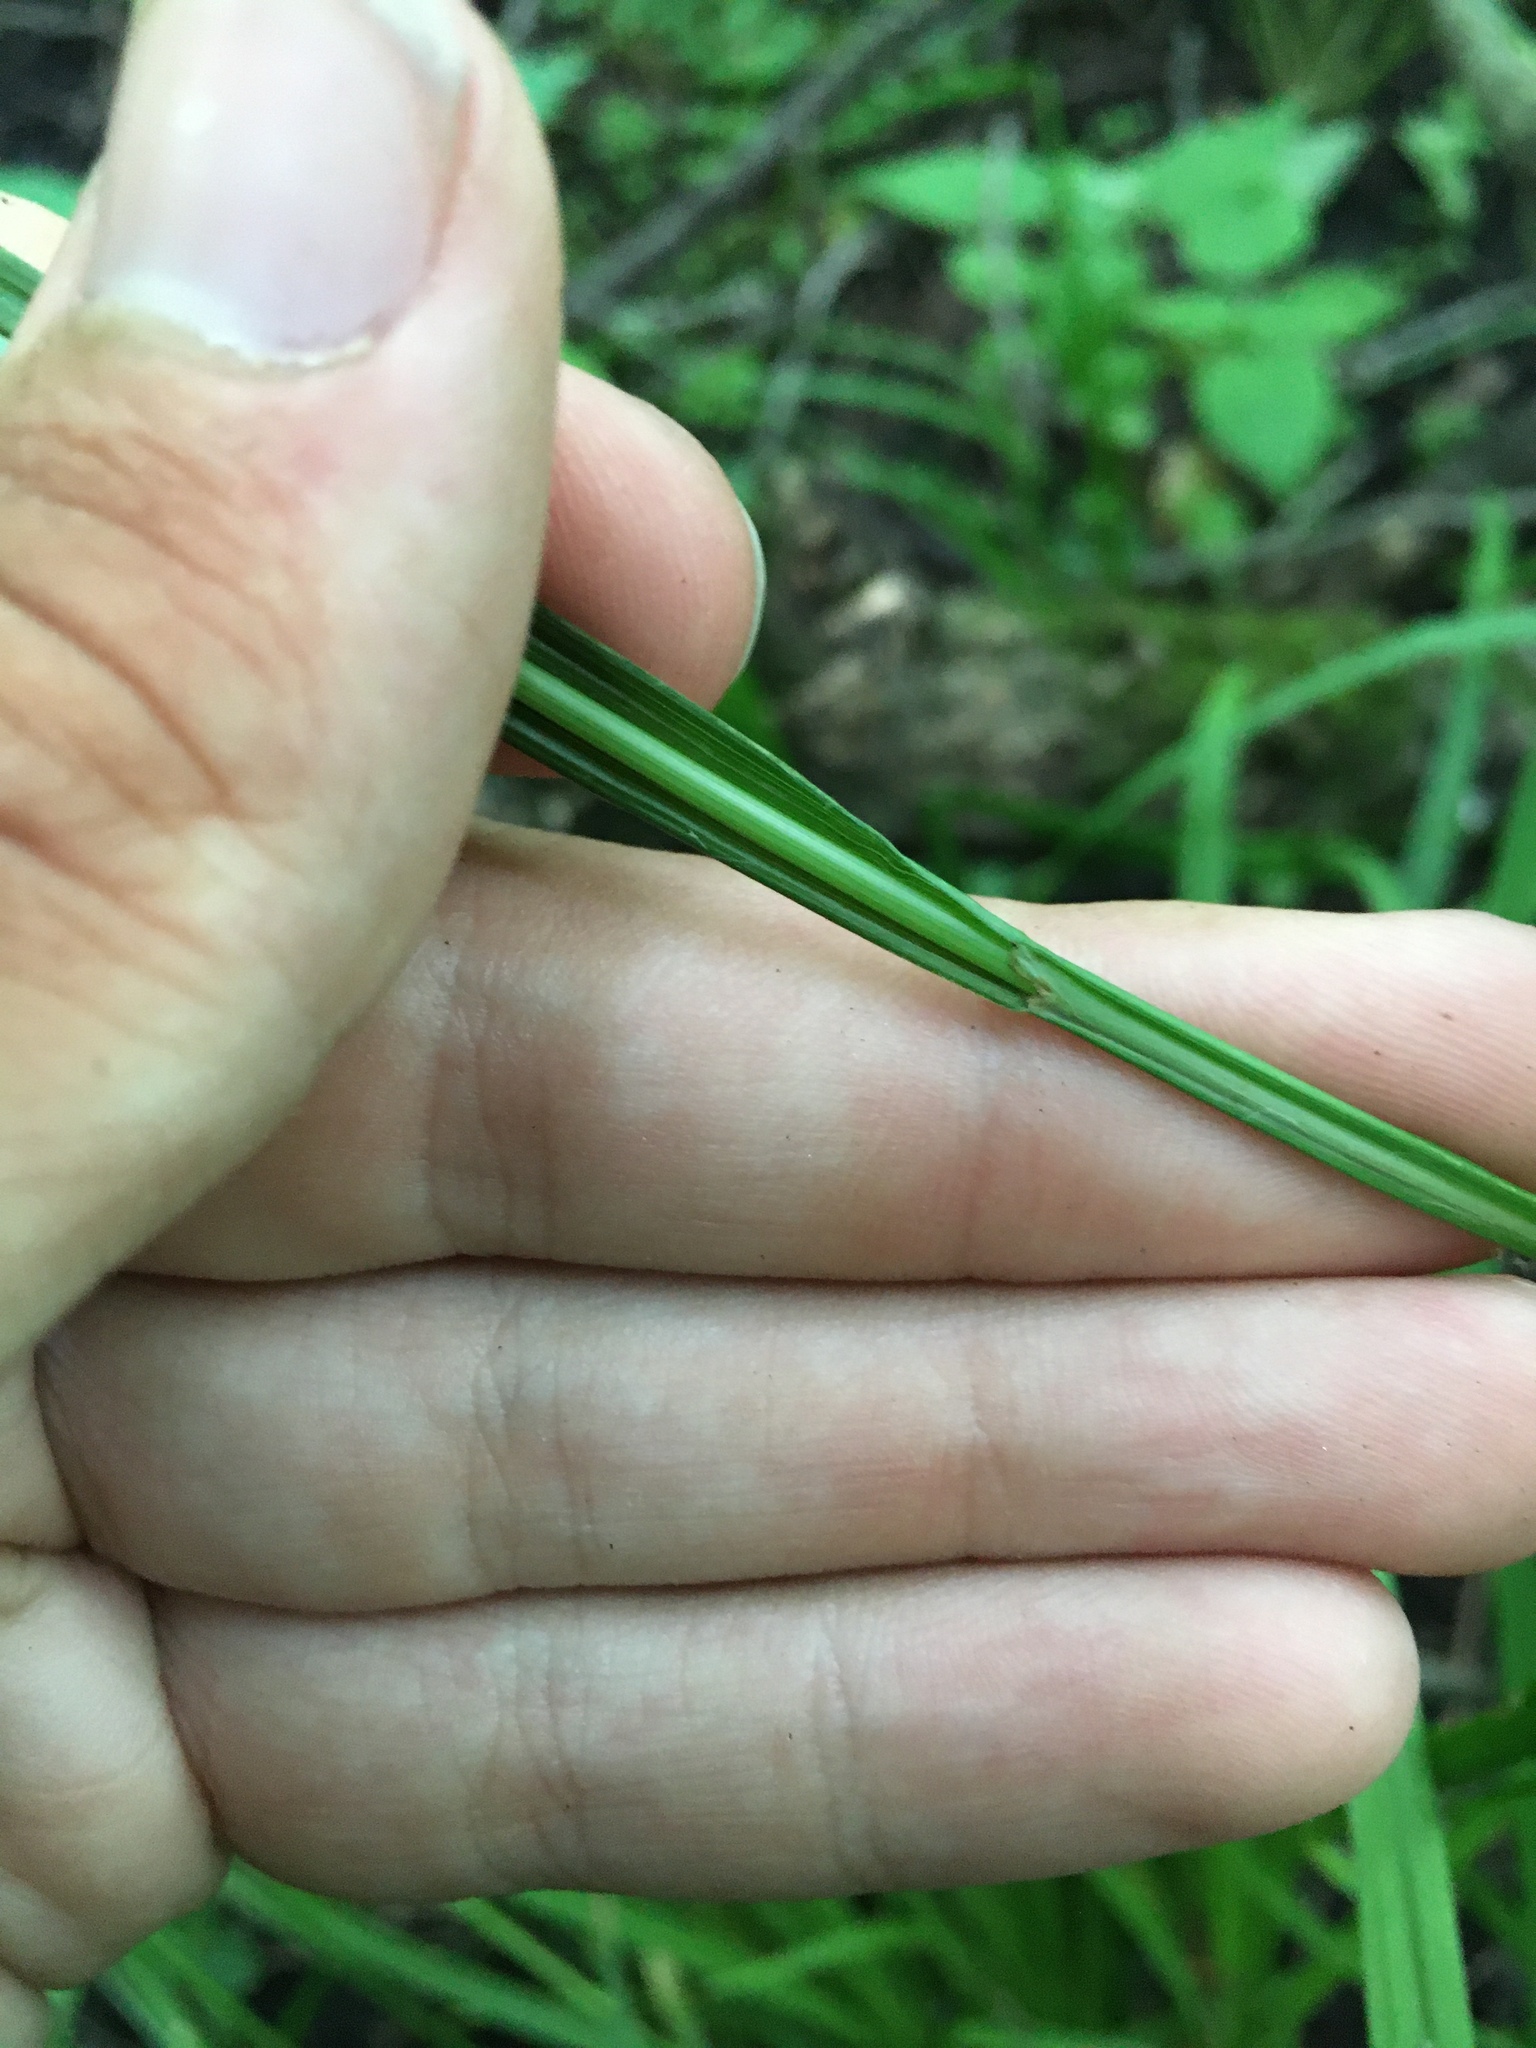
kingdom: Plantae
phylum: Tracheophyta
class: Liliopsida
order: Poales
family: Cyperaceae
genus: Carex
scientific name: Carex gracillima
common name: Graceful sedge
